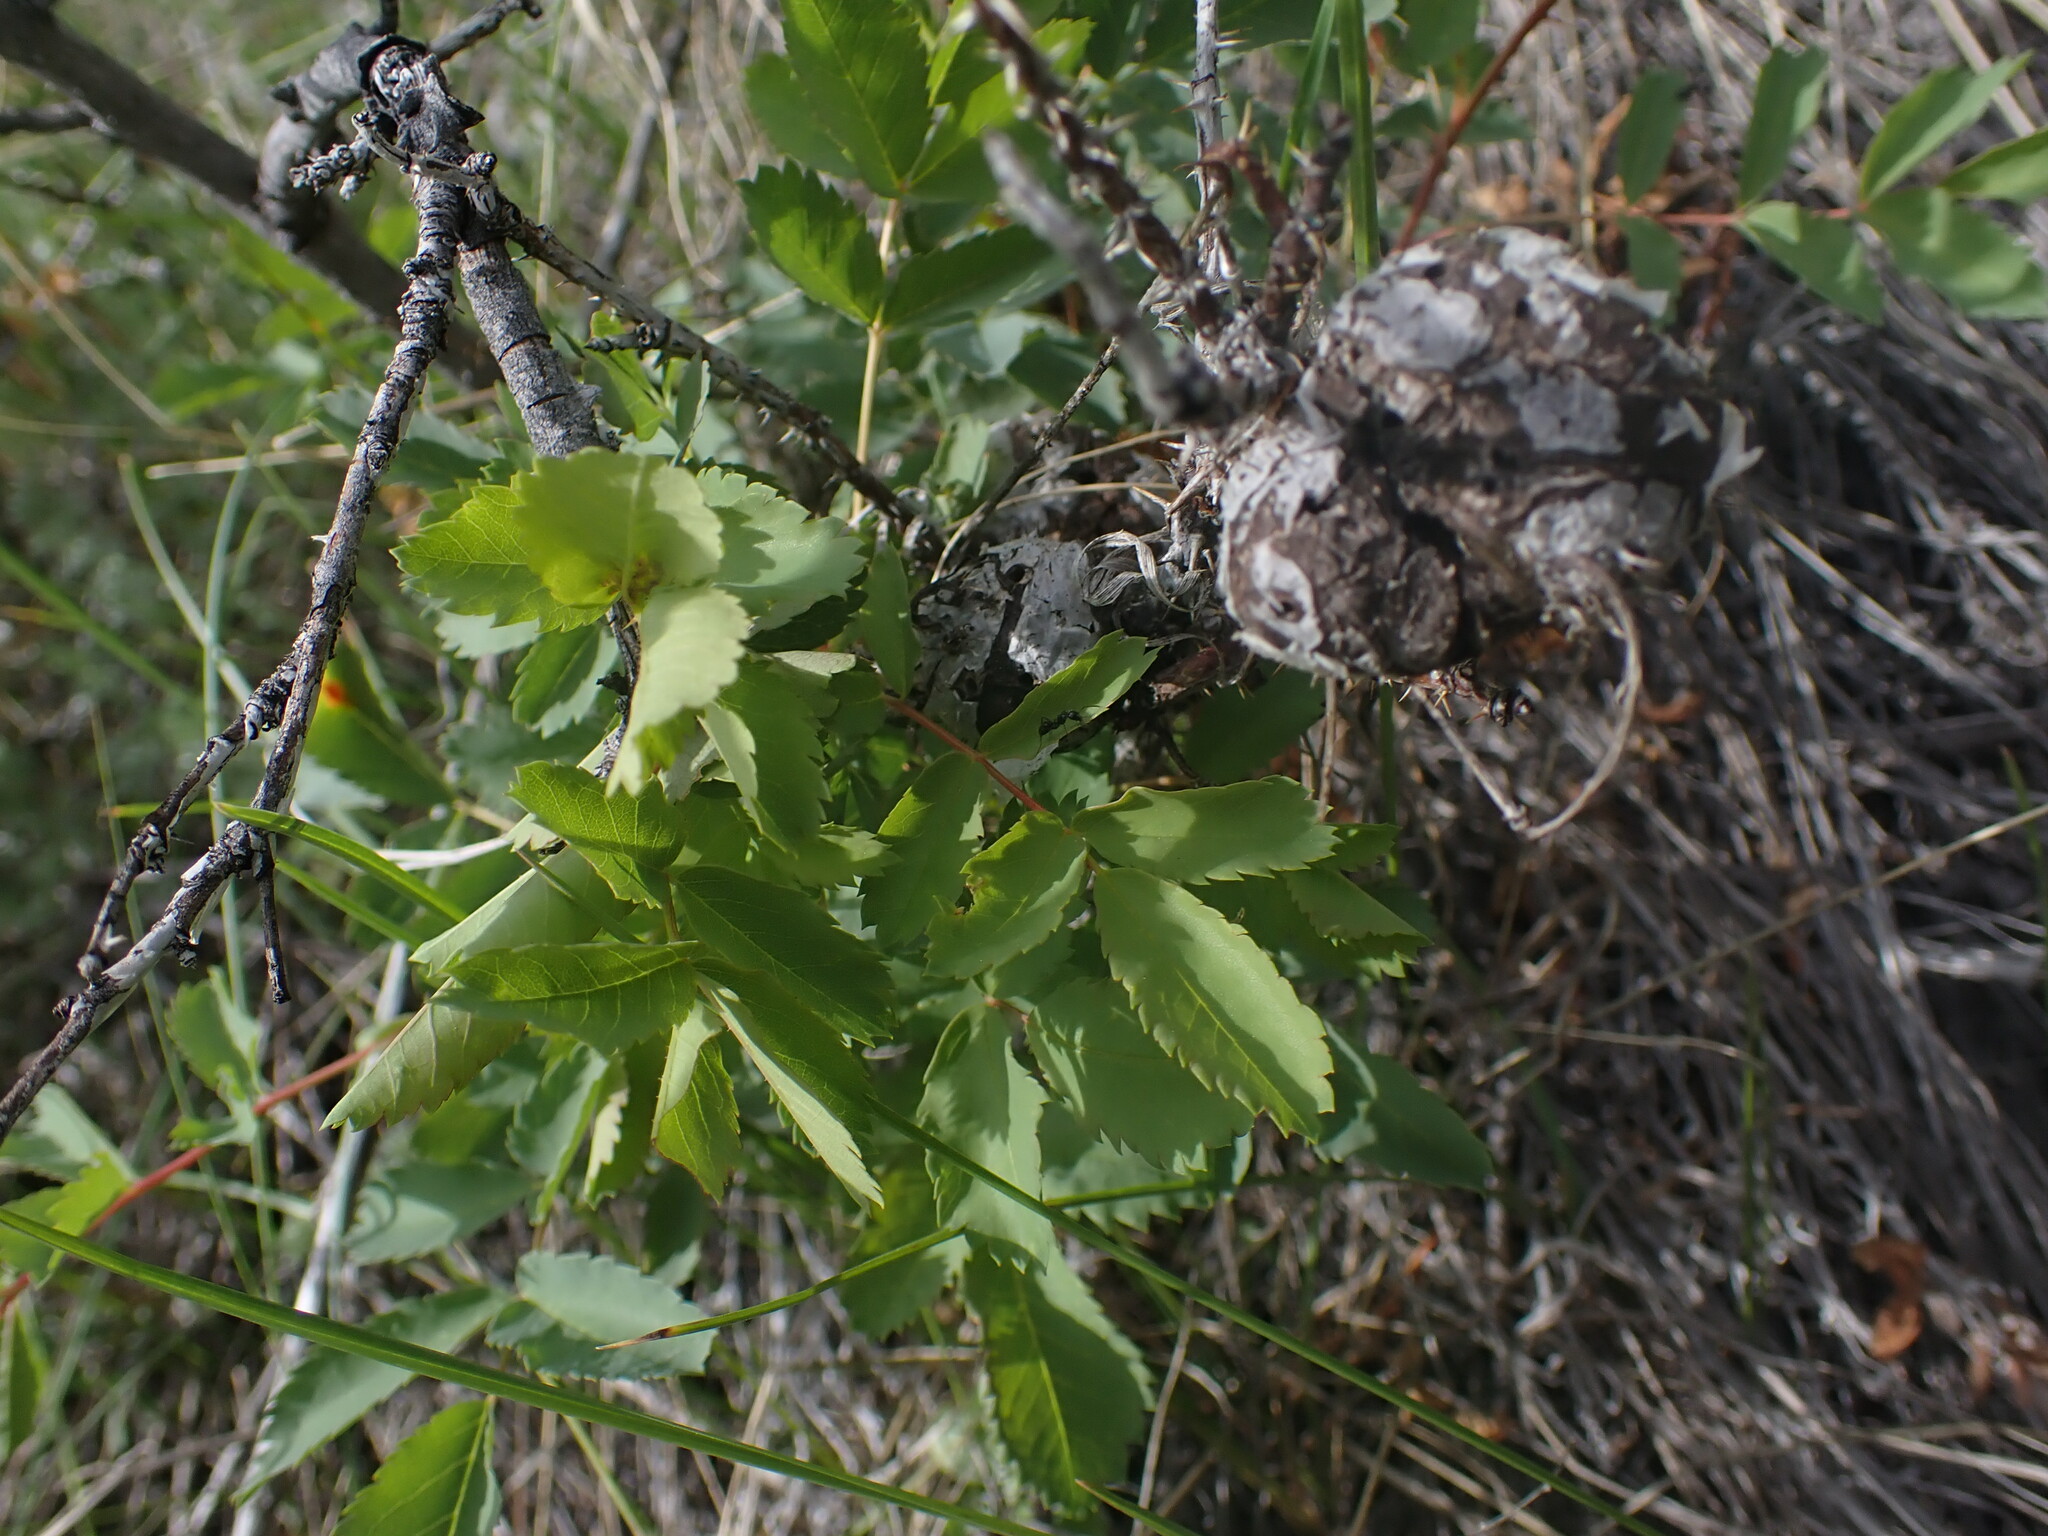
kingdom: Animalia
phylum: Arthropoda
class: Insecta
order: Hymenoptera
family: Cynipidae
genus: Diplolepis
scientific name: Diplolepis spinosa
